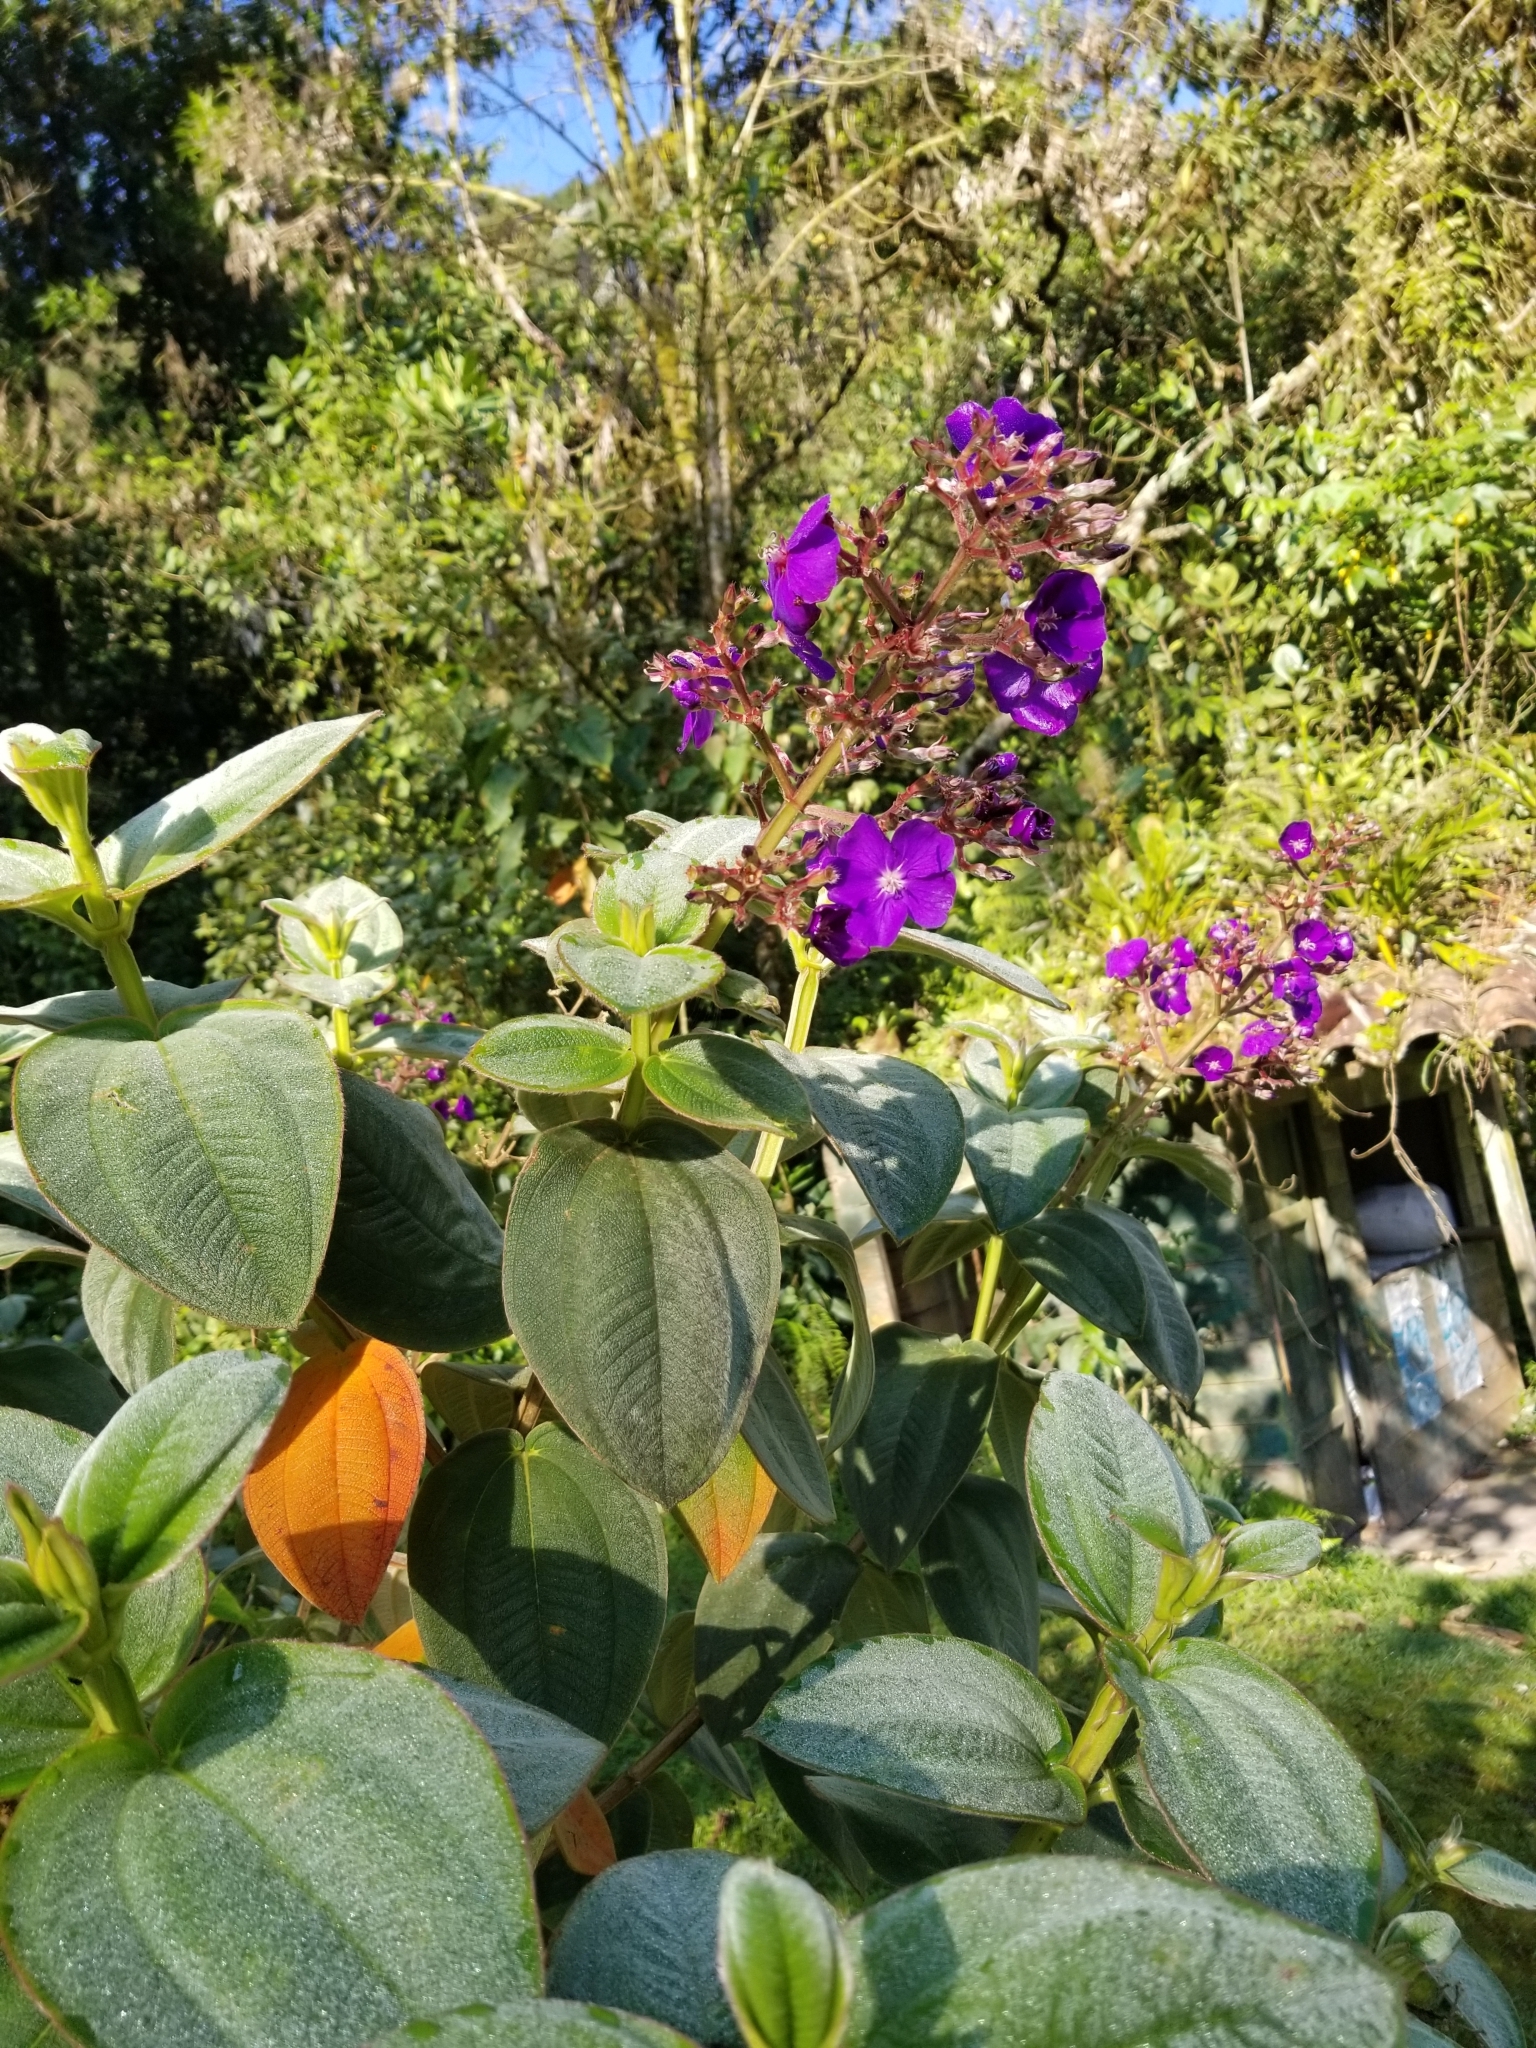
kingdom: Plantae
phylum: Tracheophyta
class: Magnoliopsida
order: Myrtales
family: Melastomataceae
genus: Pleroma
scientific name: Pleroma heteromallum
